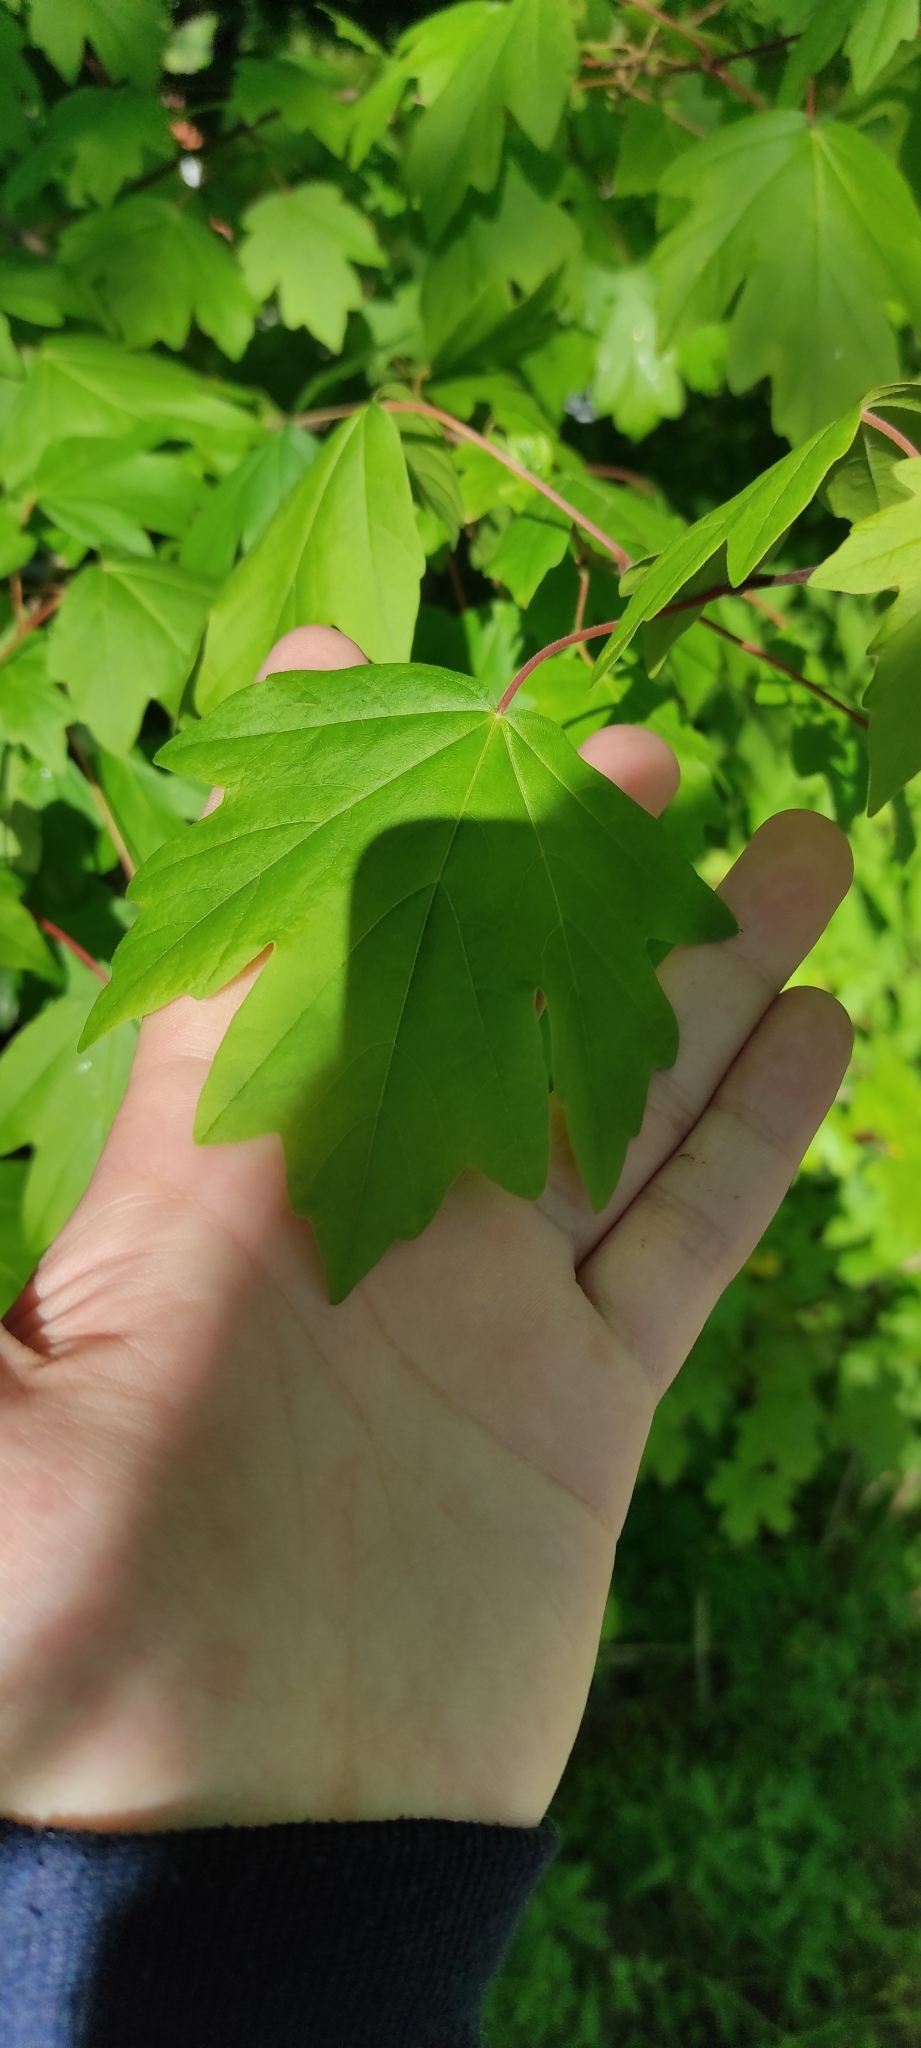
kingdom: Plantae
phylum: Tracheophyta
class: Magnoliopsida
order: Sapindales
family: Sapindaceae
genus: Acer
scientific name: Acer campestre
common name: Field maple
